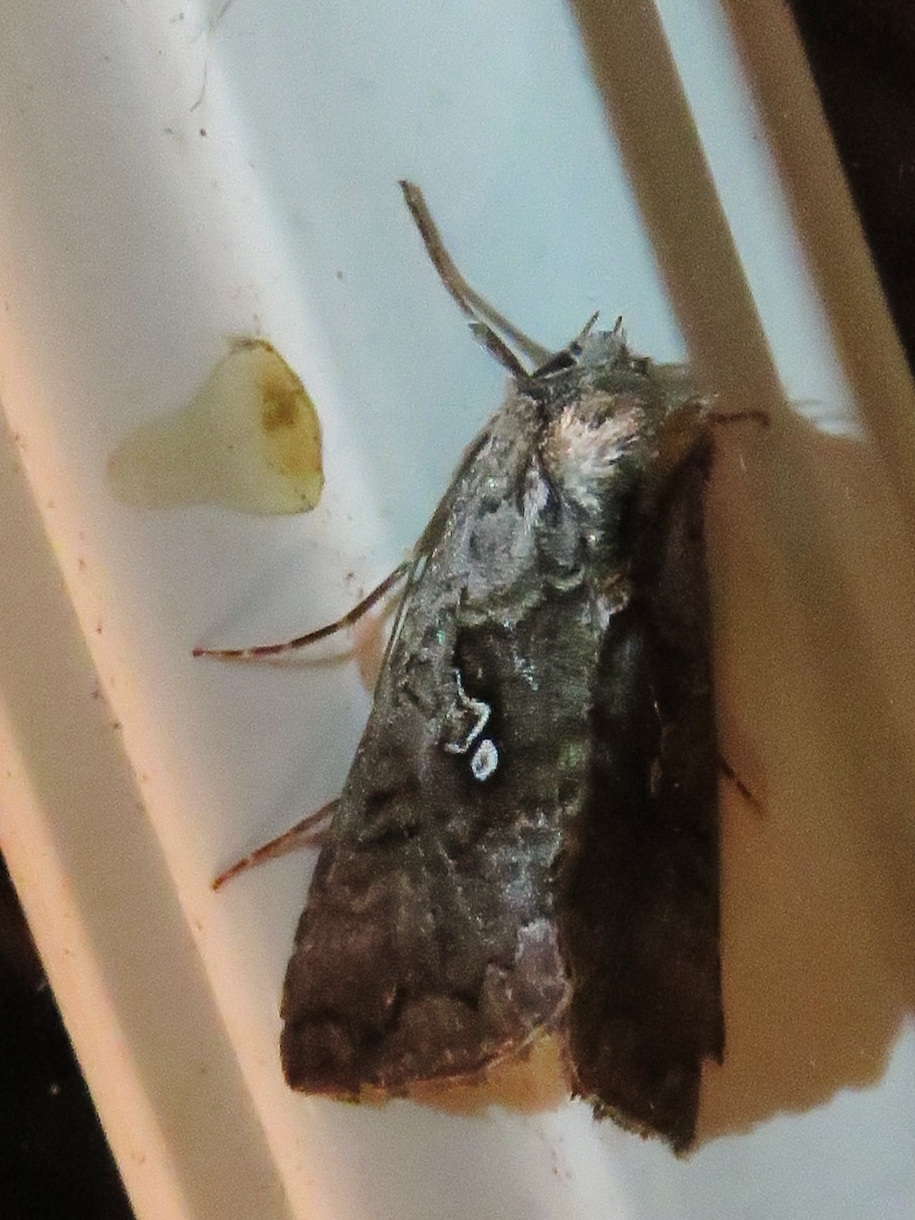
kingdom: Animalia
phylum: Arthropoda
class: Insecta
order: Lepidoptera
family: Noctuidae
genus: Syngrapha
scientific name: Syngrapha interrogationis
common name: Scarce silver y
